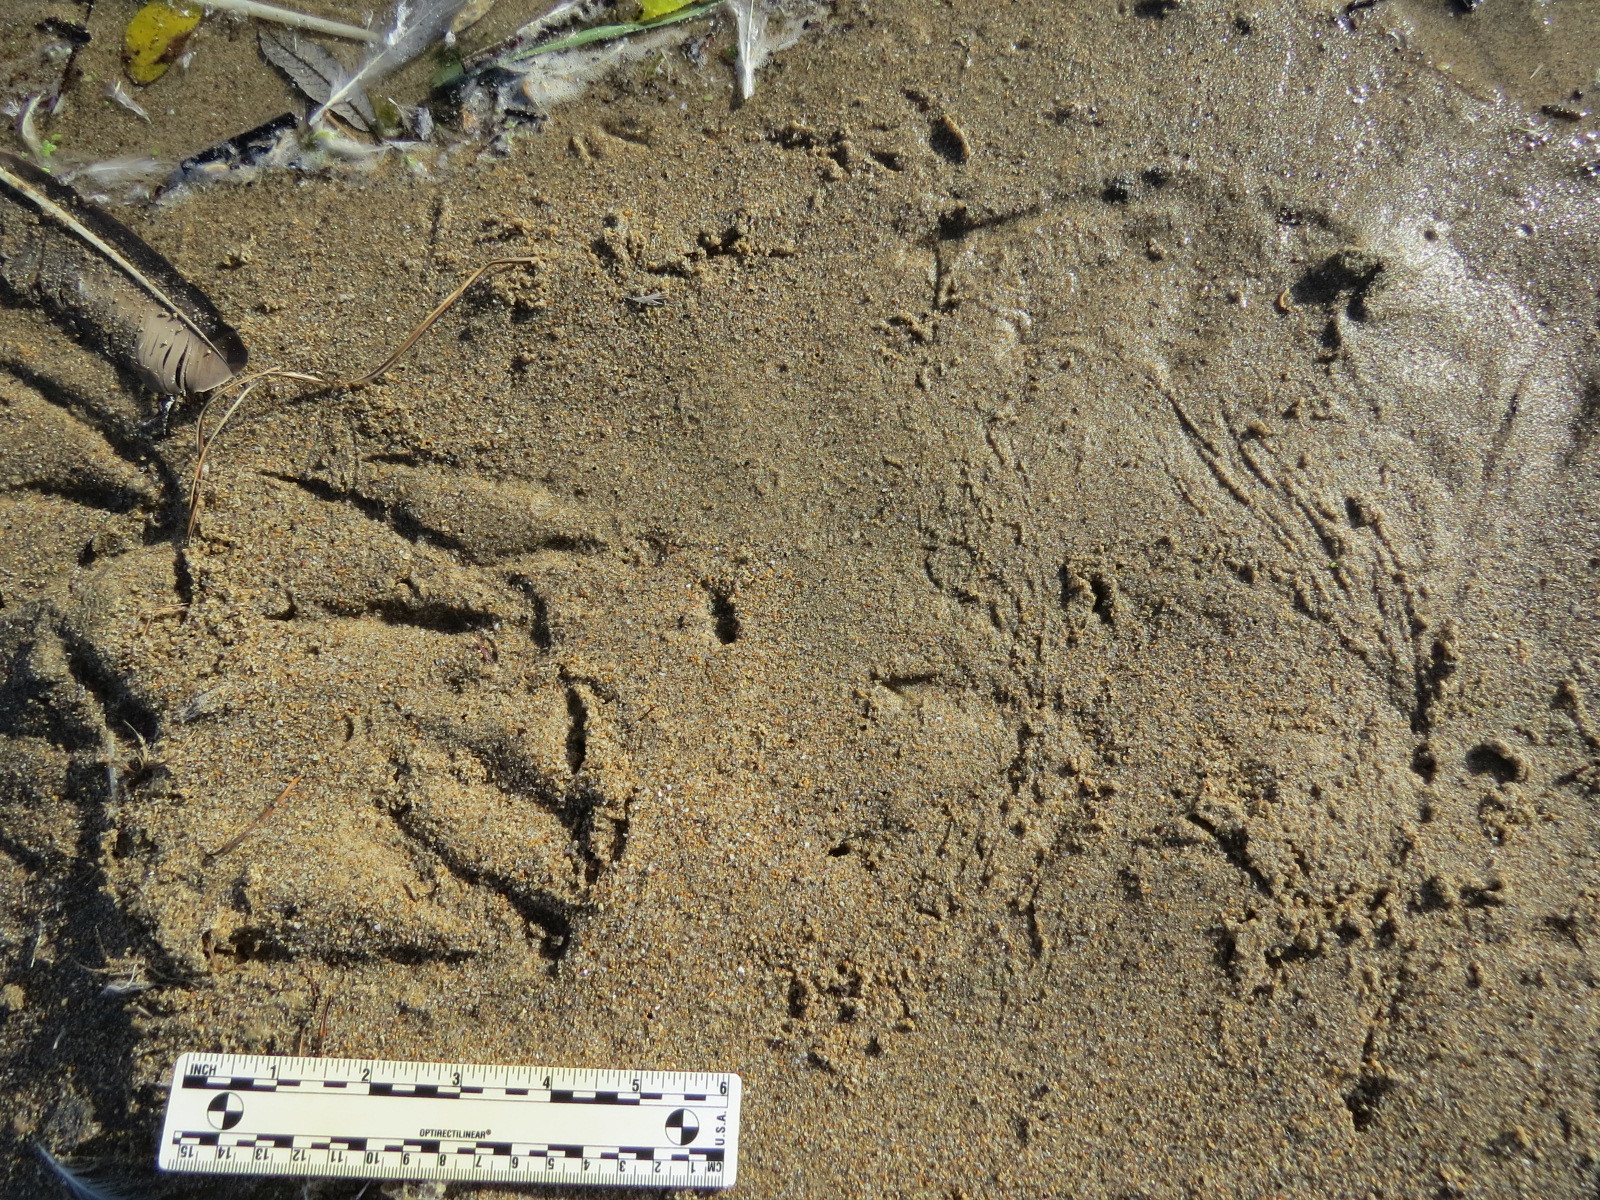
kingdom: Animalia
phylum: Chordata
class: Aves
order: Suliformes
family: Phalacrocoracidae
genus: Phalacrocorax
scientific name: Phalacrocorax auritus
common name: Double-crested cormorant
